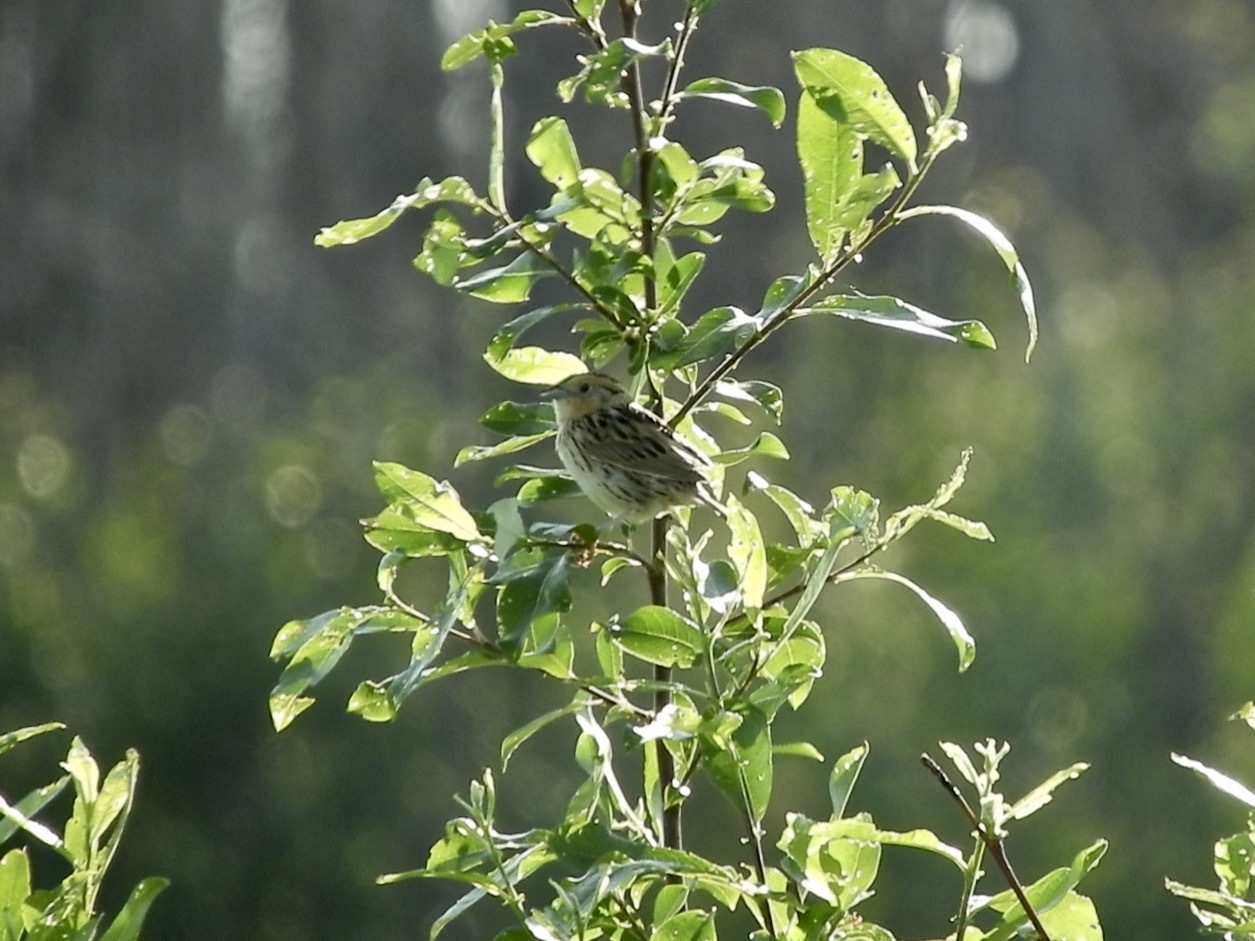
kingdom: Animalia
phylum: Chordata
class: Aves
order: Passeriformes
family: Passerellidae
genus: Ammospiza
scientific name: Ammospiza leconteii
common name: Le conte's sparrow
